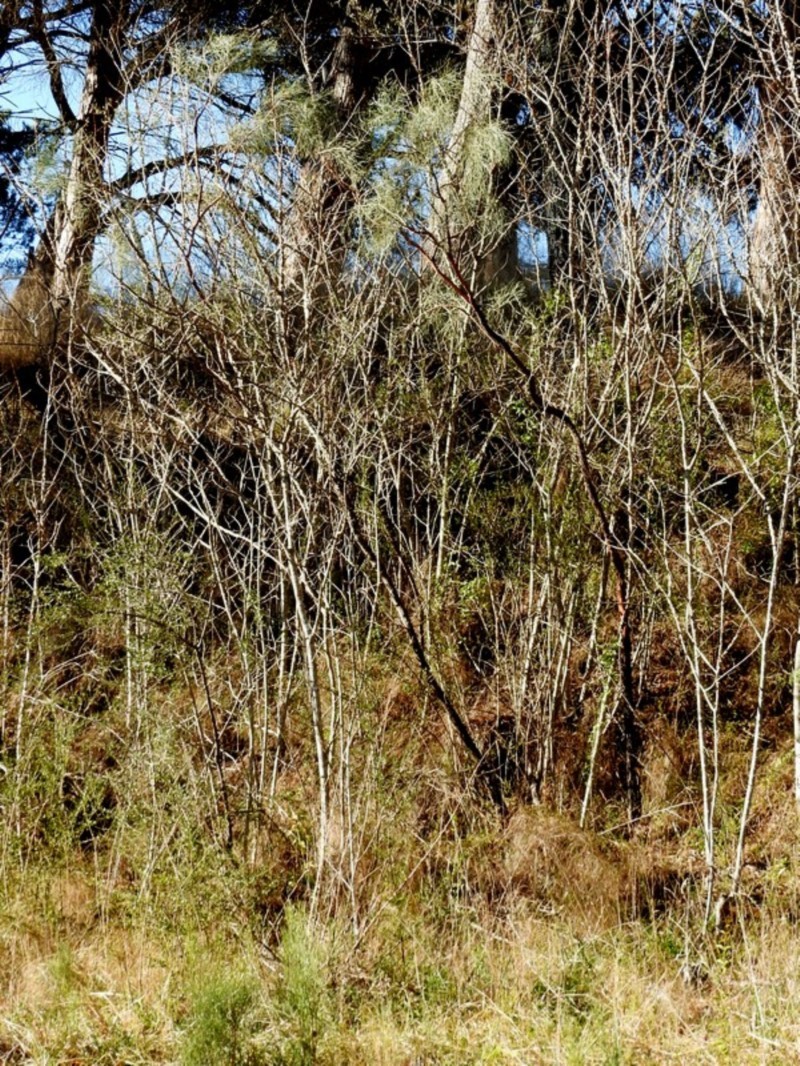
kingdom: Plantae
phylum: Tracheophyta
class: Magnoliopsida
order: Fabales
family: Fabaceae
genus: Jacksonia
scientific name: Jacksonia scoparia
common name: Dogwood
